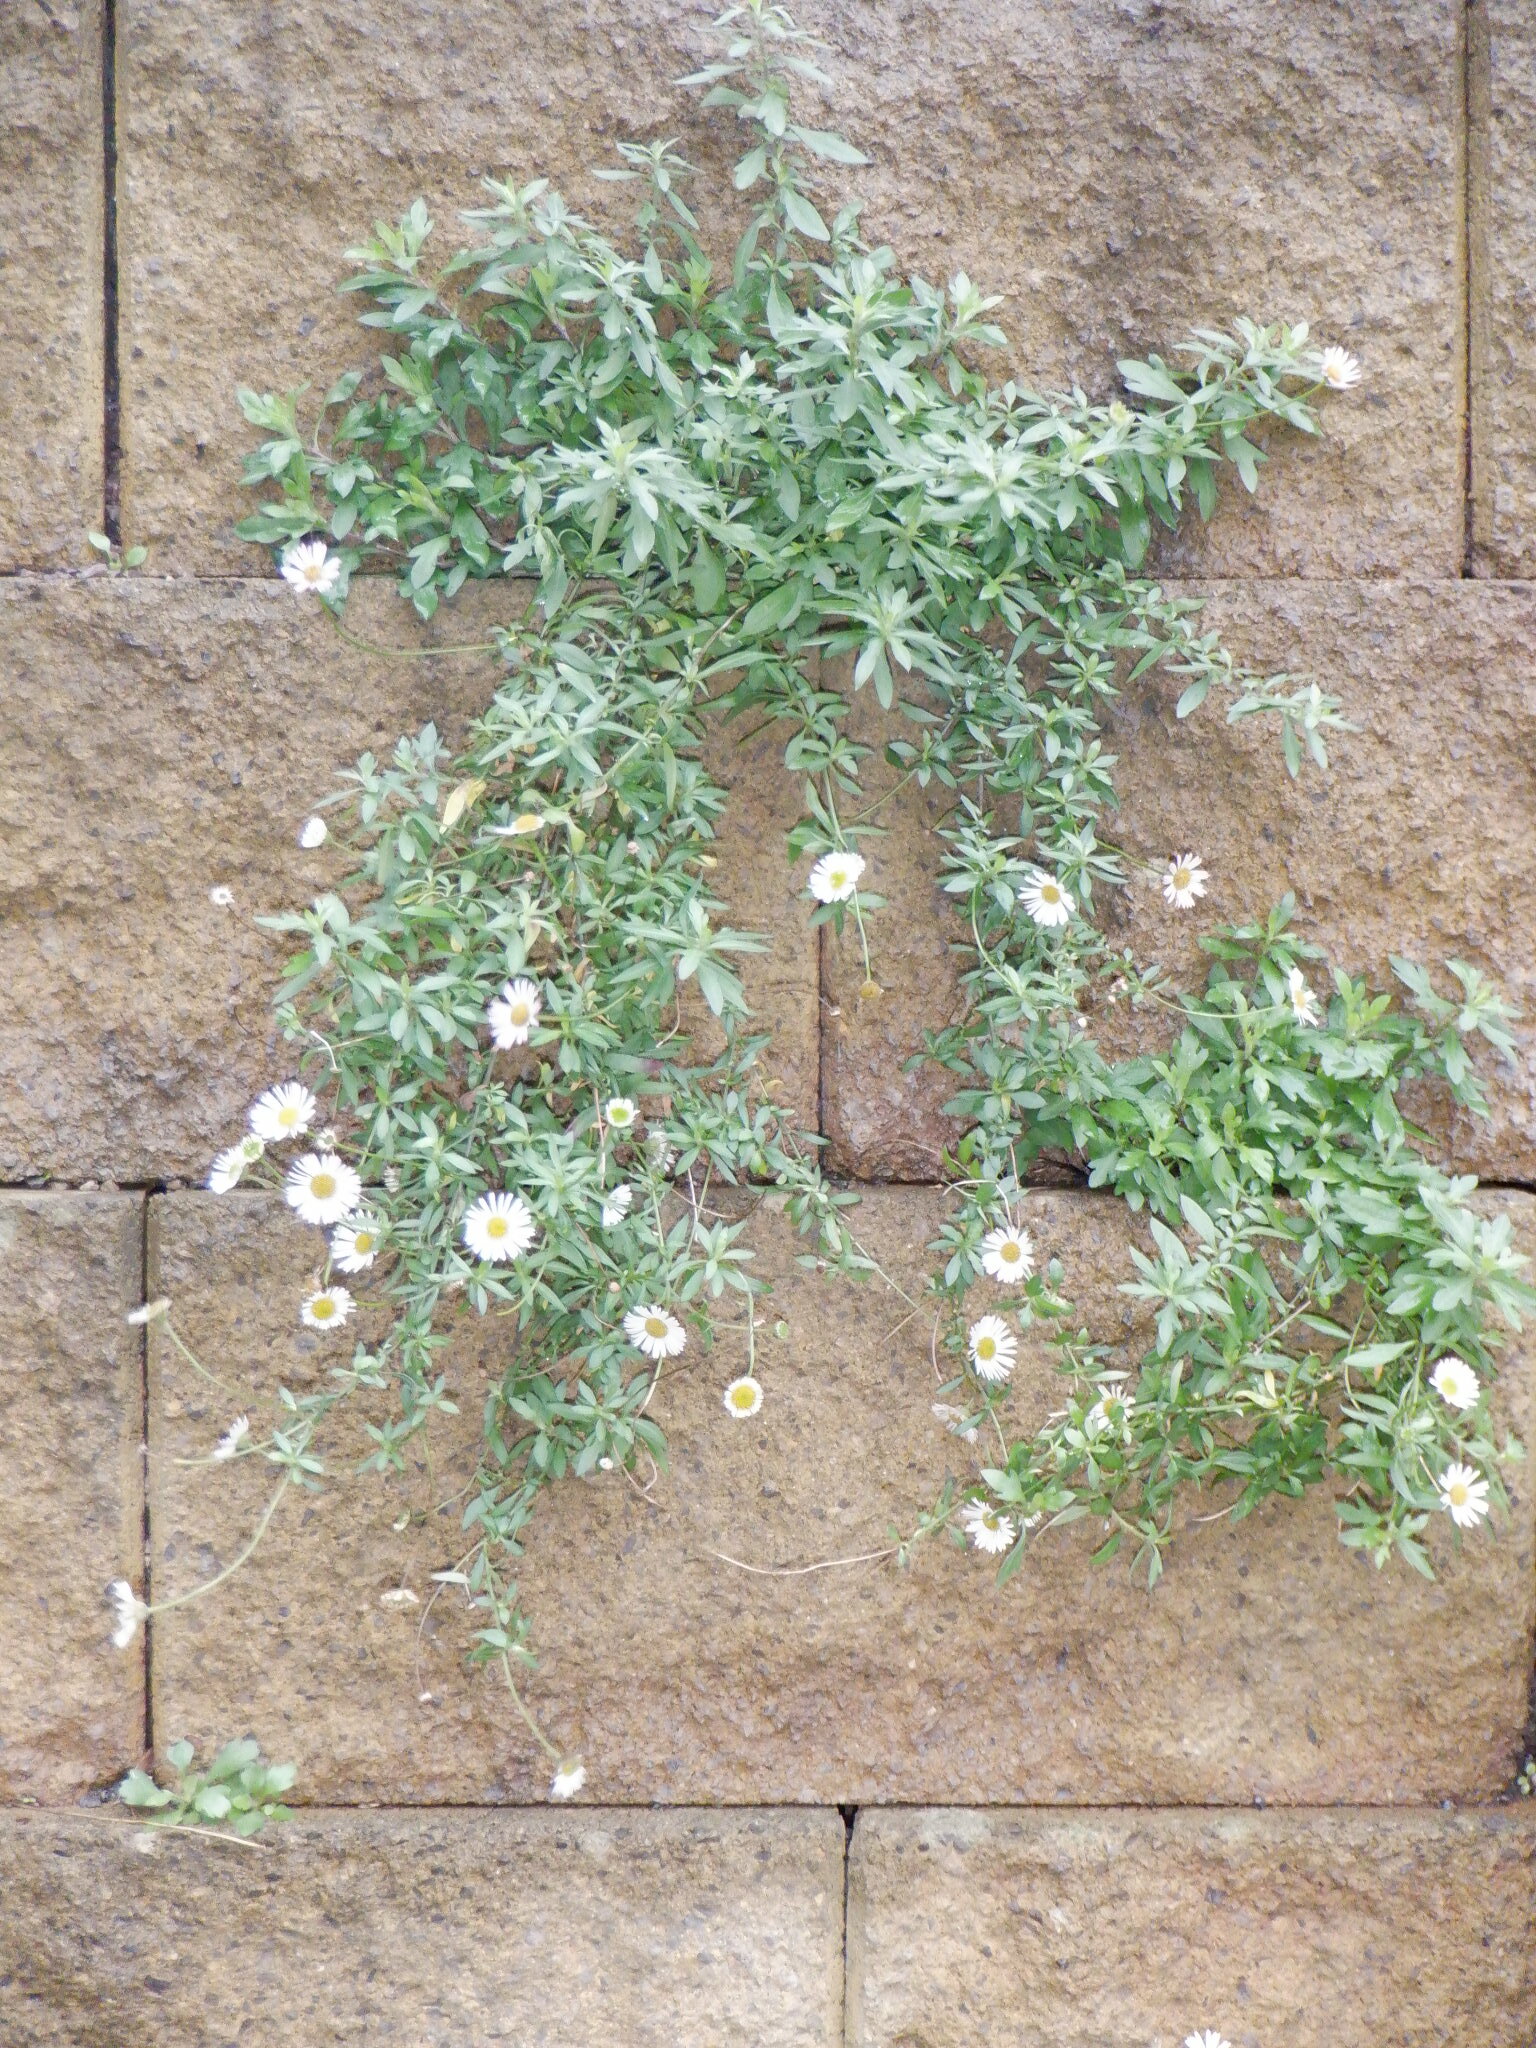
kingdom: Plantae
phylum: Tracheophyta
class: Magnoliopsida
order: Asterales
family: Asteraceae
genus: Erigeron
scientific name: Erigeron karvinskianus
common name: Mexican fleabane
